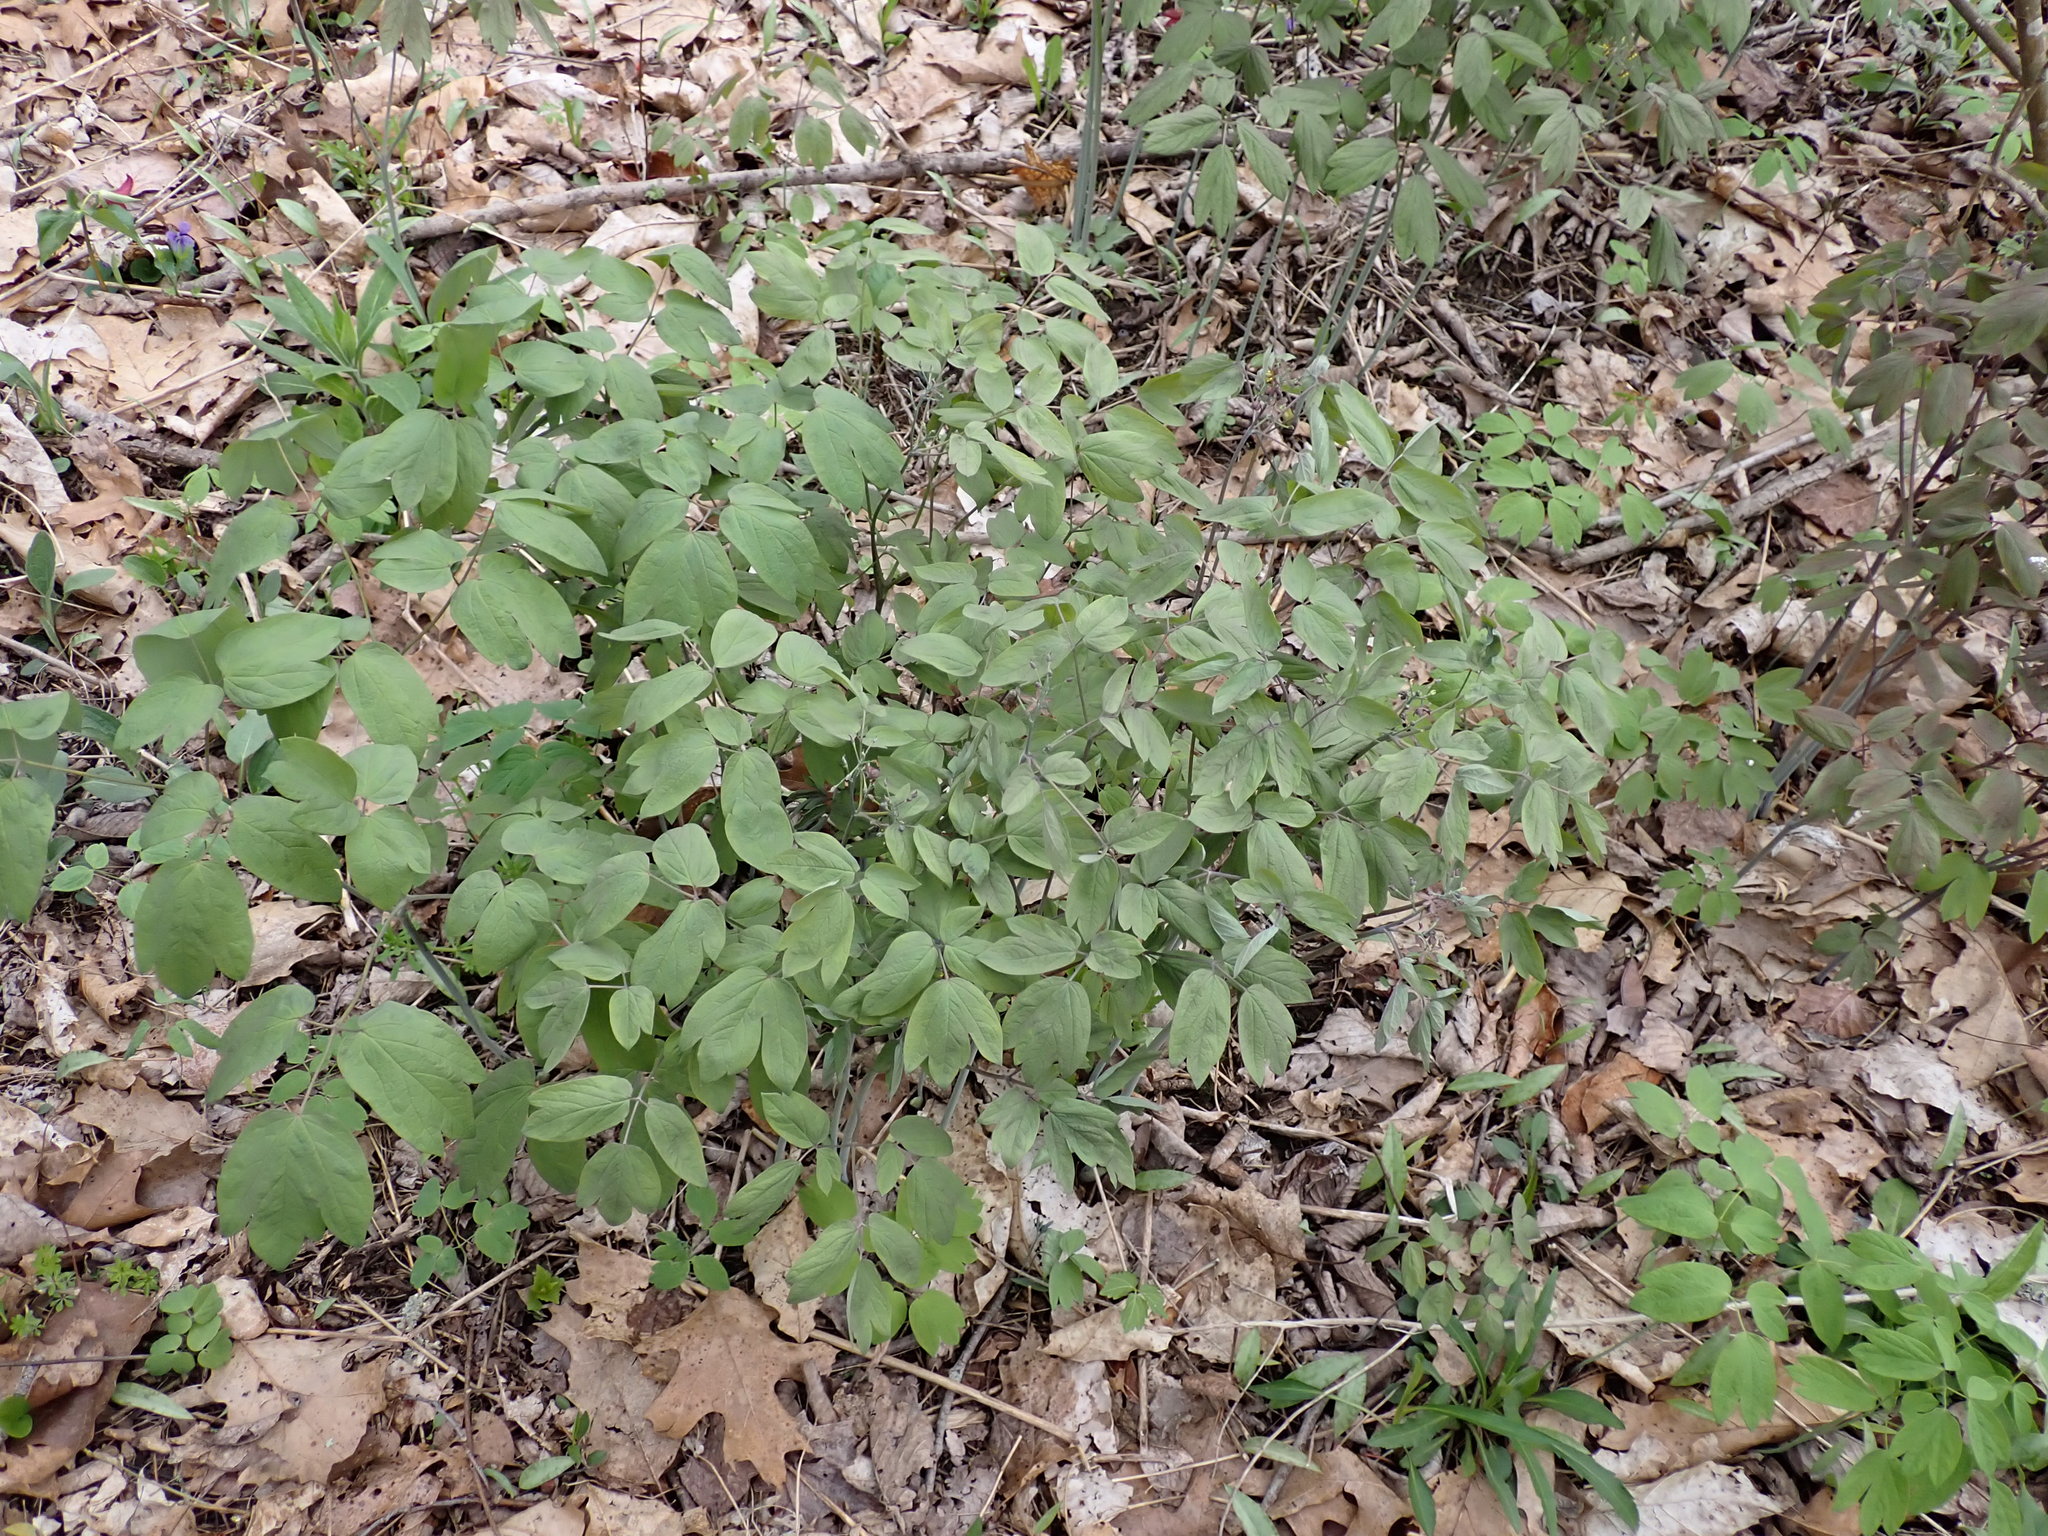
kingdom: Plantae
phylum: Tracheophyta
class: Magnoliopsida
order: Ranunculales
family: Berberidaceae
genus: Caulophyllum
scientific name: Caulophyllum giganteum
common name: Blue cohosh
